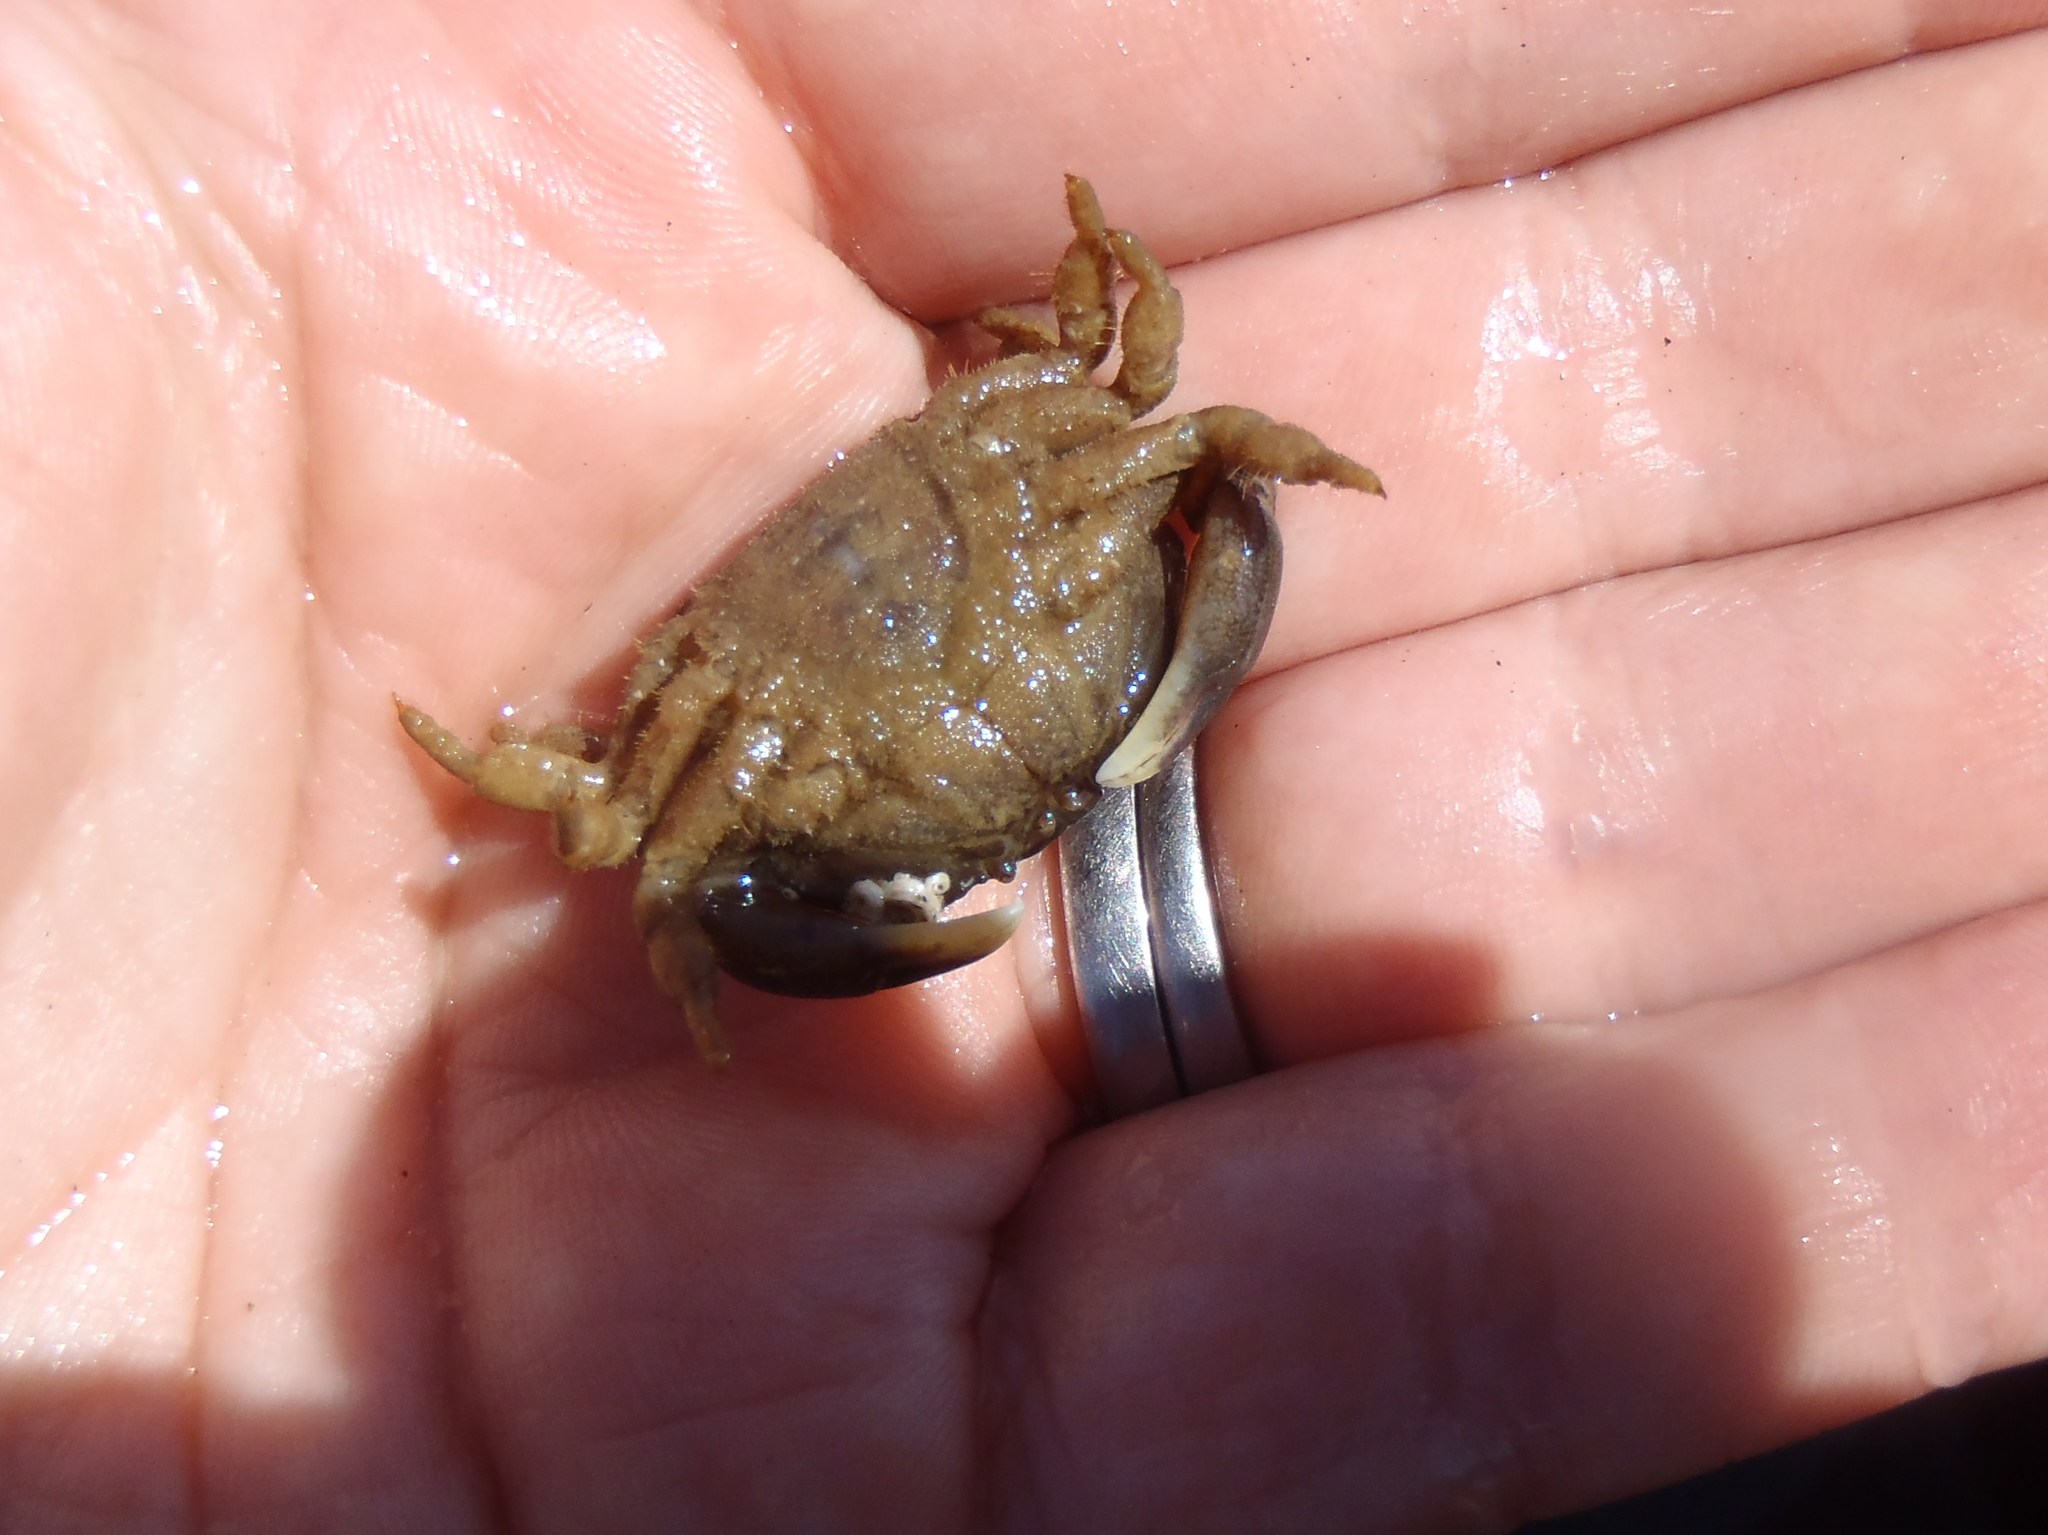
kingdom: Animalia
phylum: Arthropoda
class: Malacostraca
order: Decapoda
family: Heteroziidae
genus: Heterozius
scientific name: Heterozius rotundifrons
